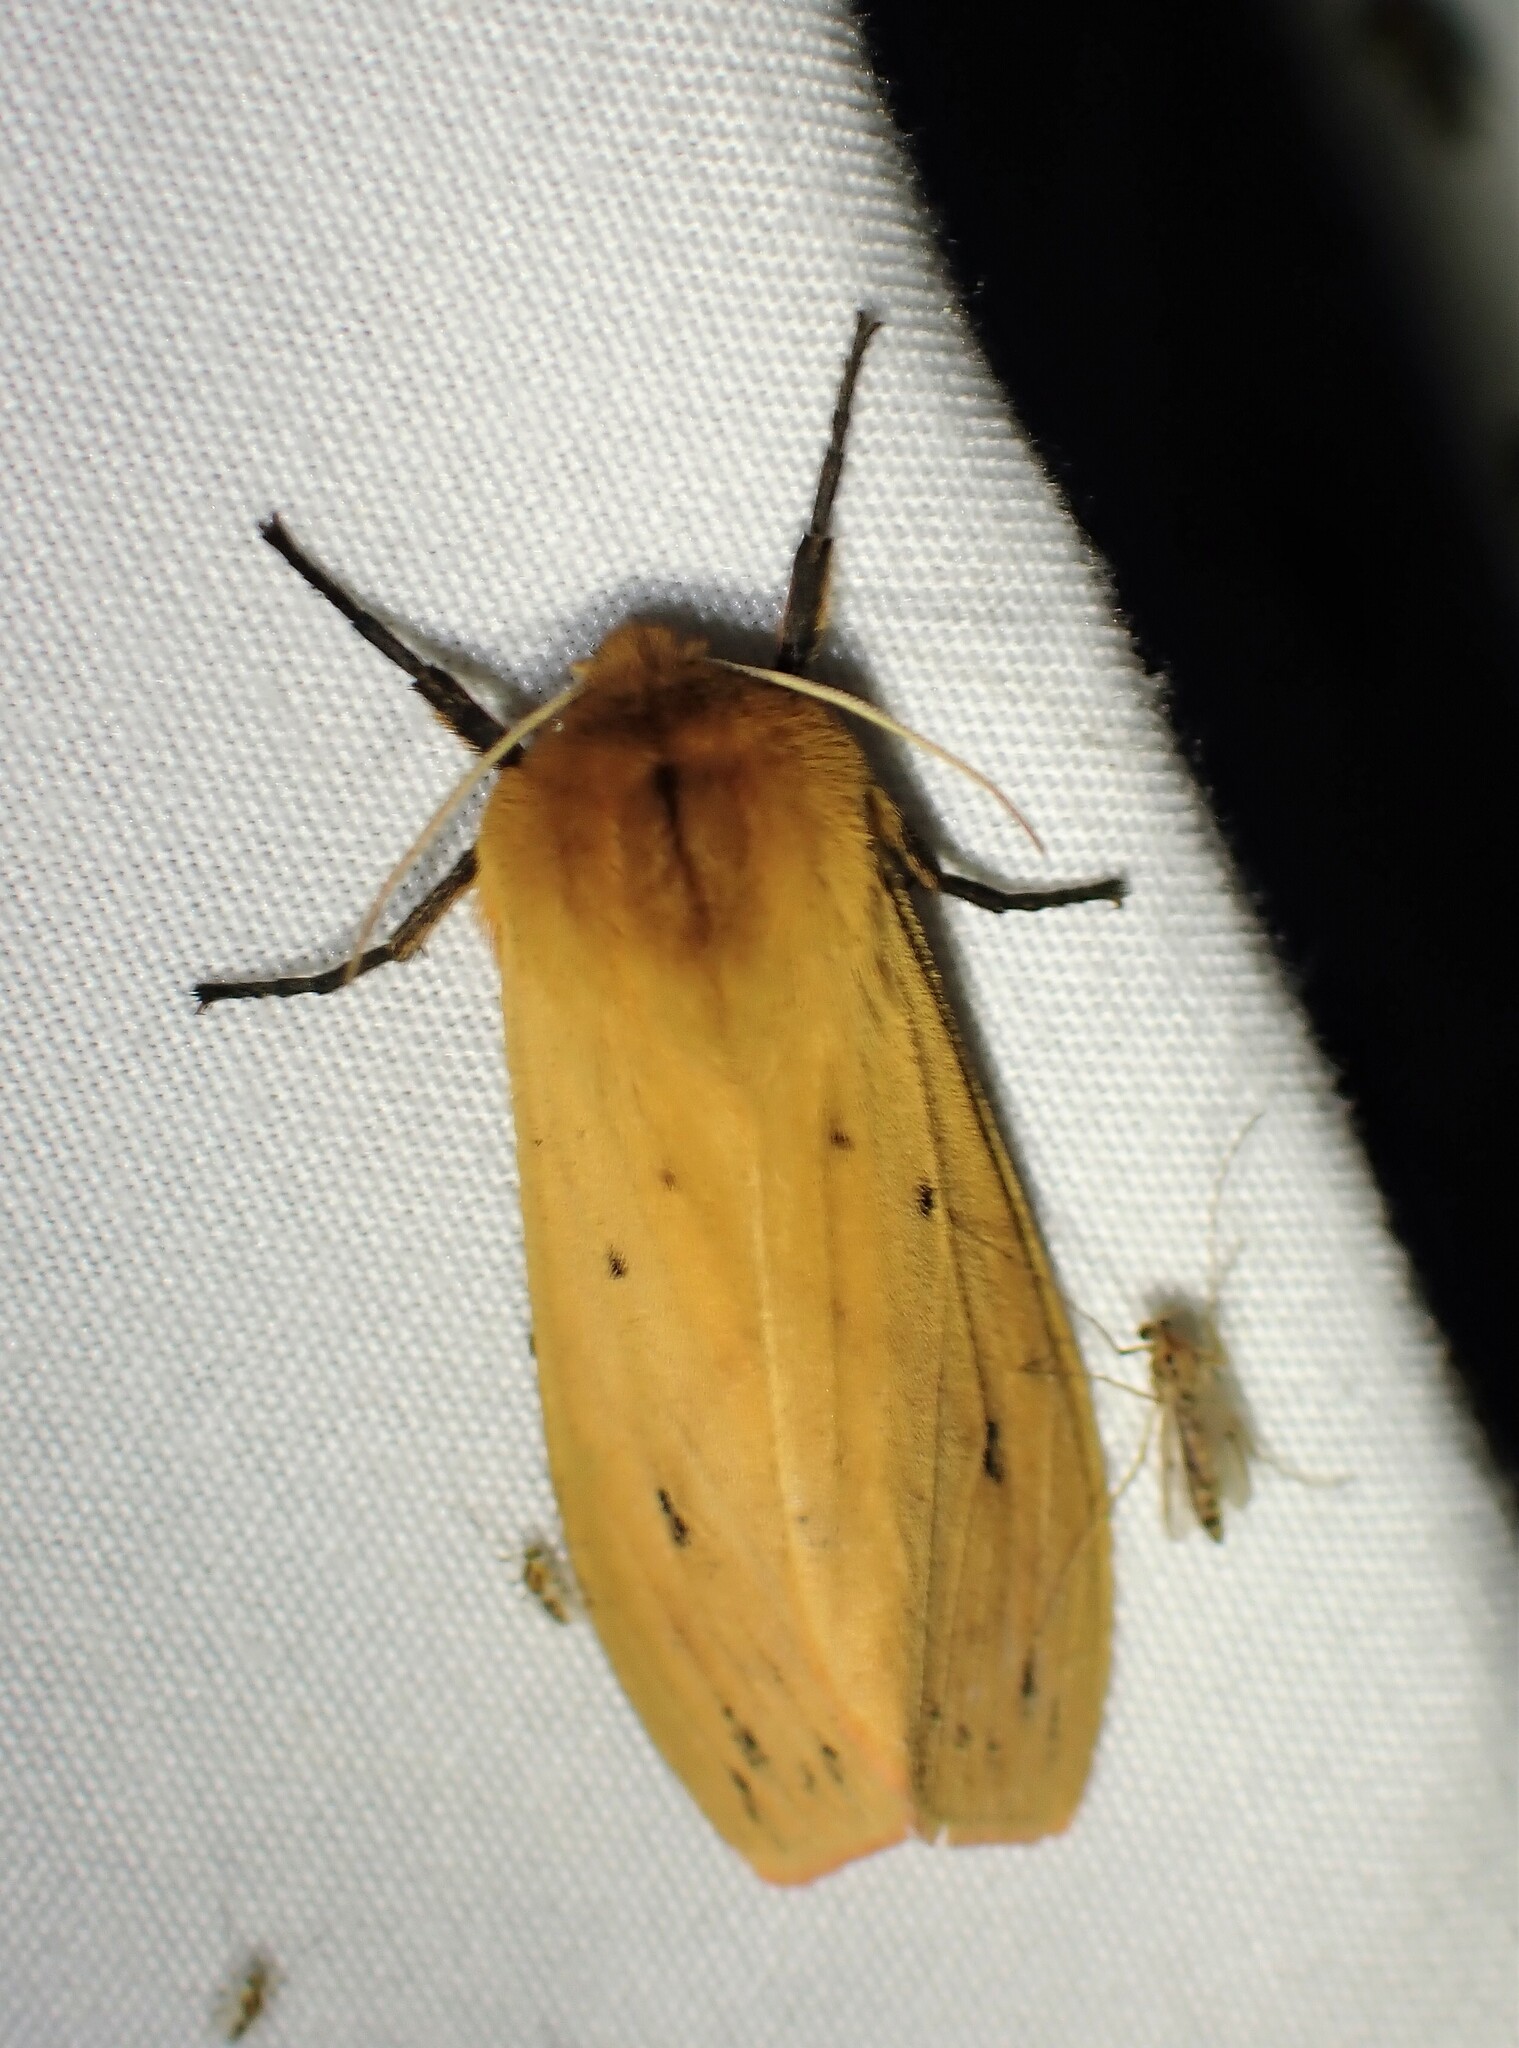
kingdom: Animalia
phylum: Arthropoda
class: Insecta
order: Lepidoptera
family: Erebidae
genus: Pyrrharctia
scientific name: Pyrrharctia isabella
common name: Isabella tiger moth
